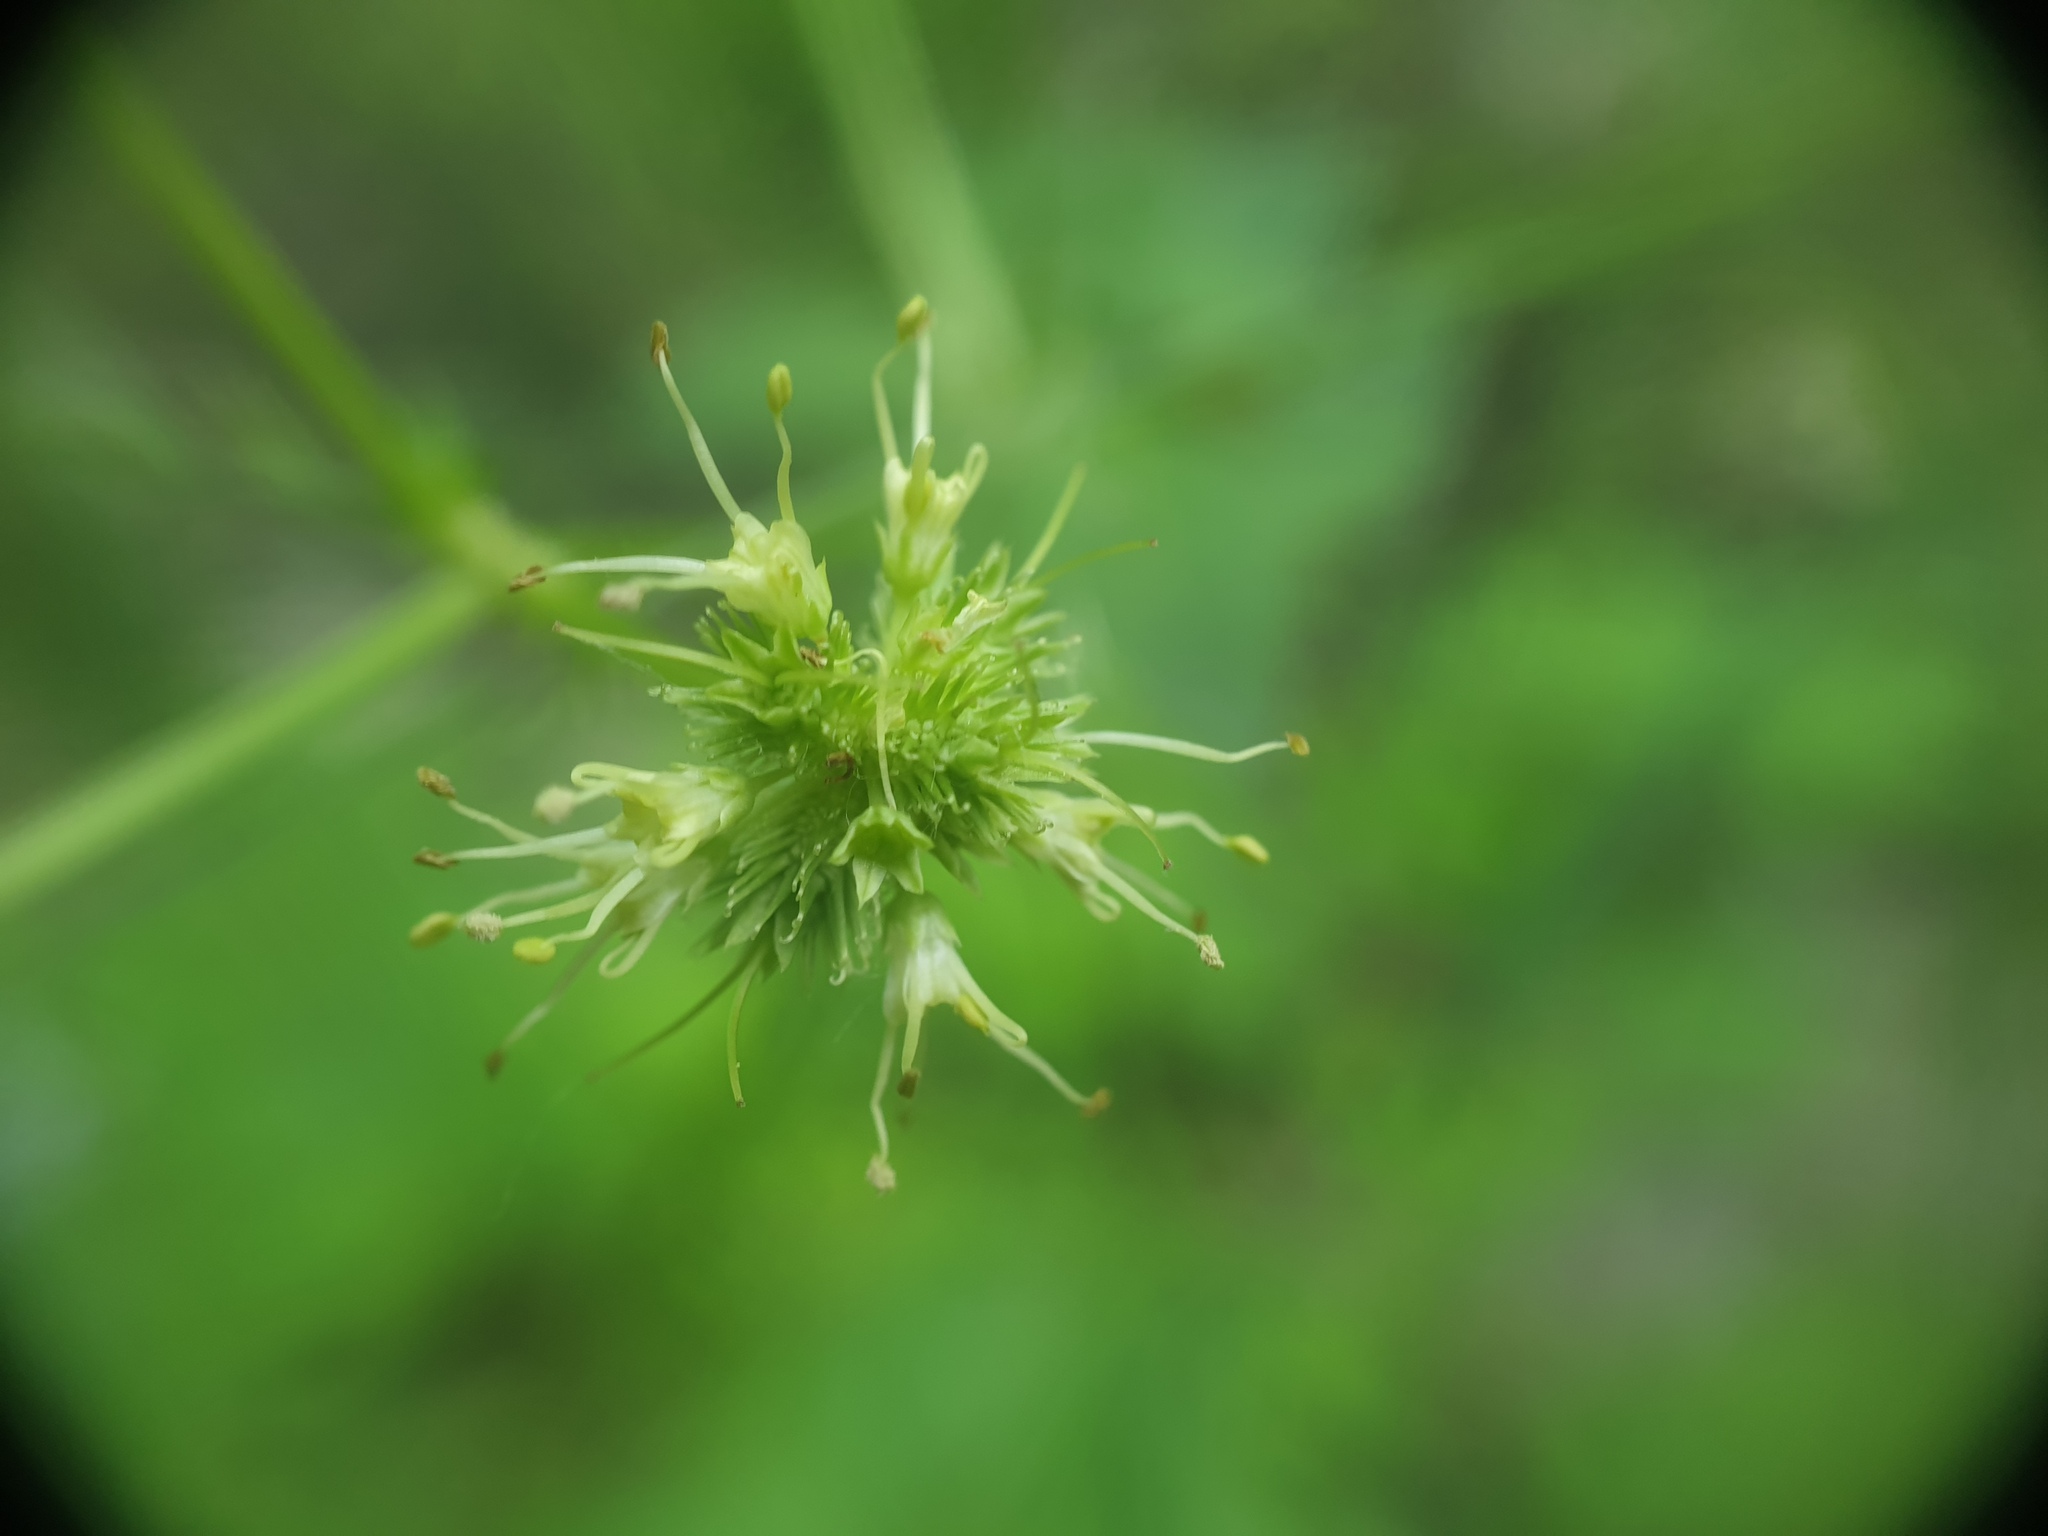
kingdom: Plantae
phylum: Tracheophyta
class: Magnoliopsida
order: Apiales
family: Apiaceae
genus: Sanicula
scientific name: Sanicula marilandica
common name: Black snakeroot
